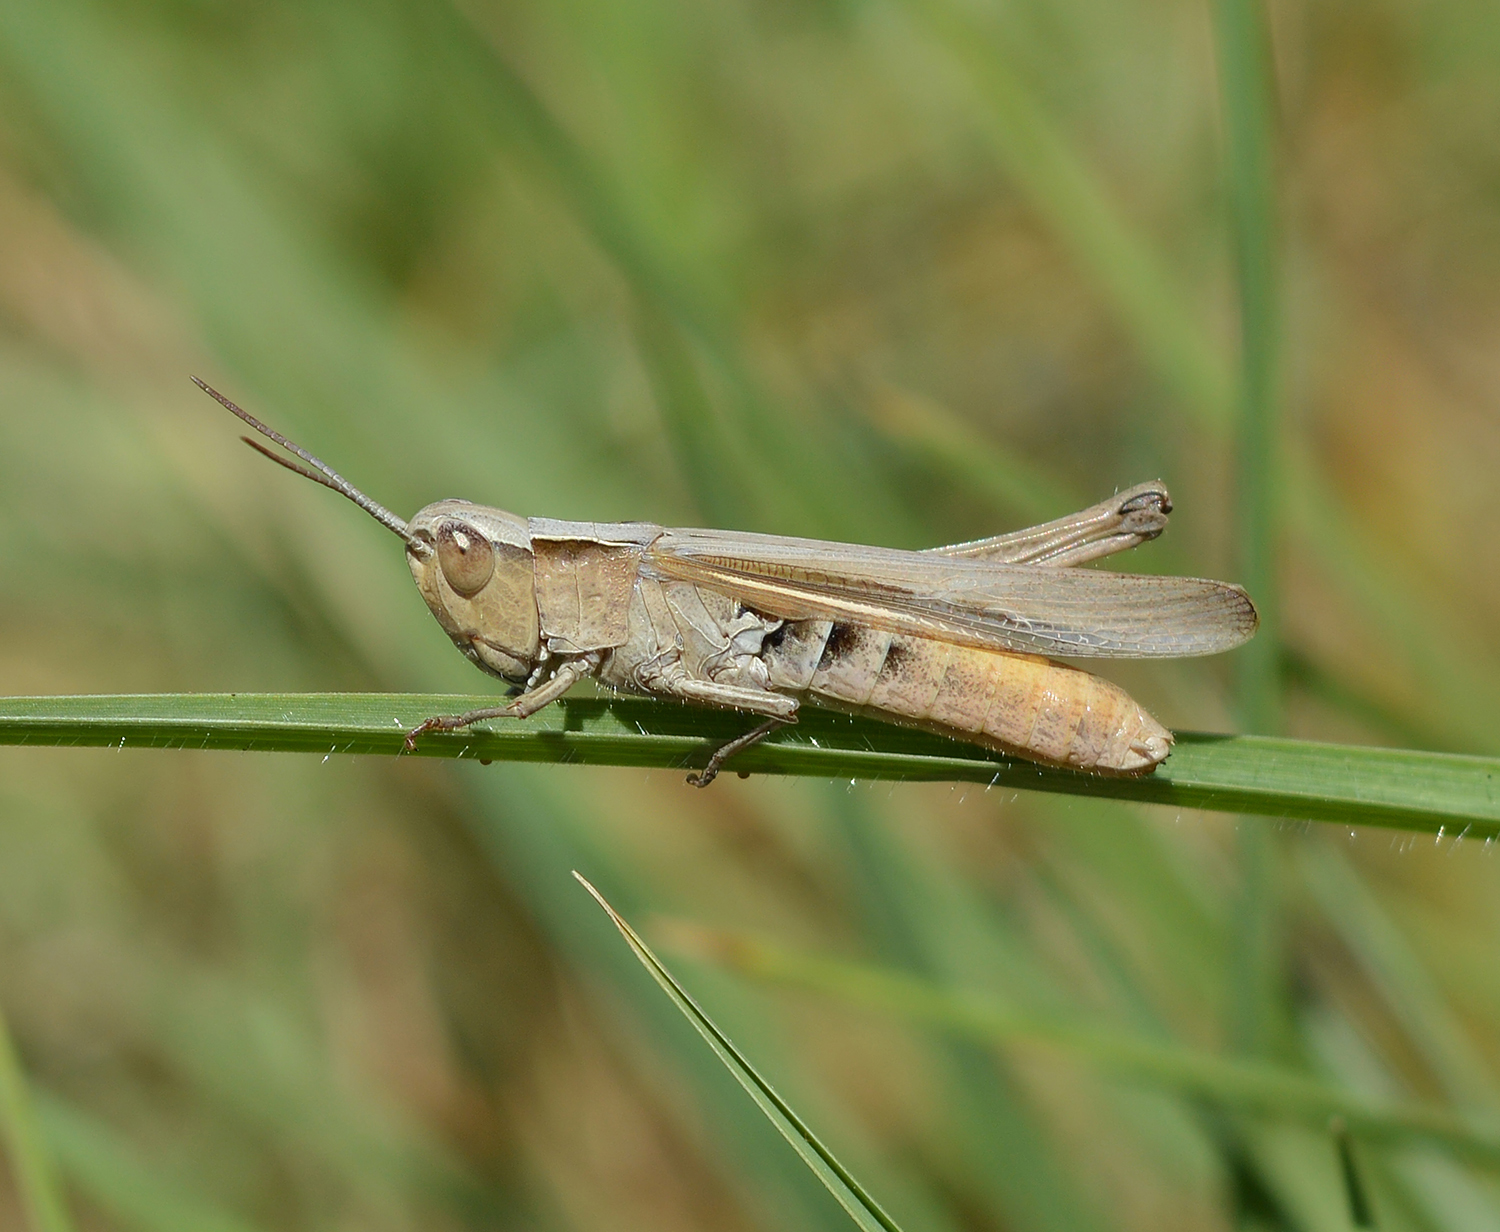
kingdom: Animalia
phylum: Arthropoda
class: Insecta
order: Orthoptera
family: Acrididae
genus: Chorthippus
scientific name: Chorthippus dichrous
